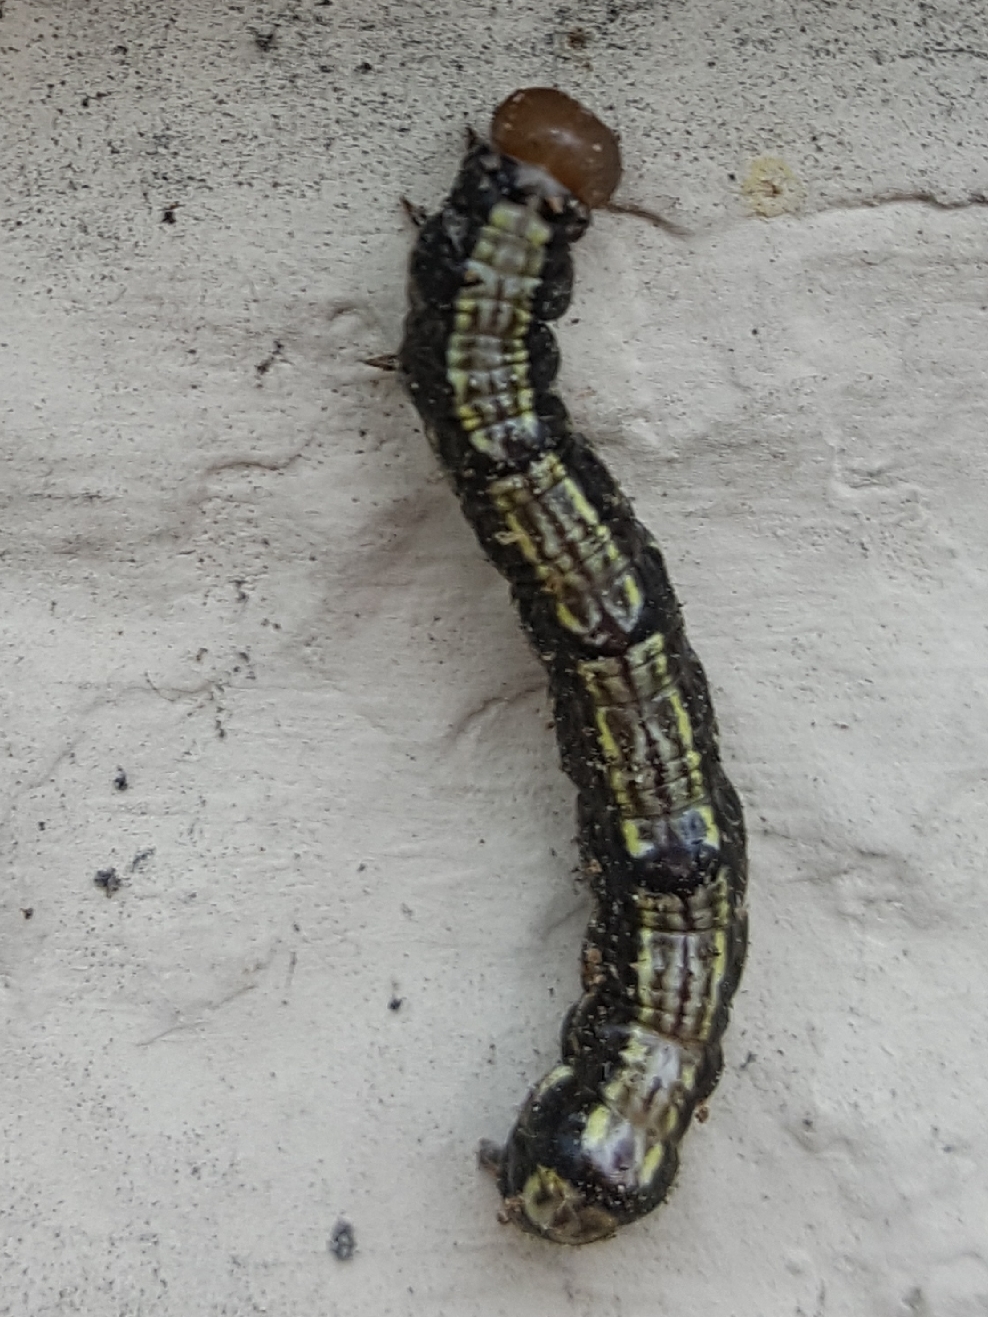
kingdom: Animalia
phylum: Arthropoda
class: Insecta
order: Lepidoptera
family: Notodontidae
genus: Phryganidia
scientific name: Phryganidia californica
